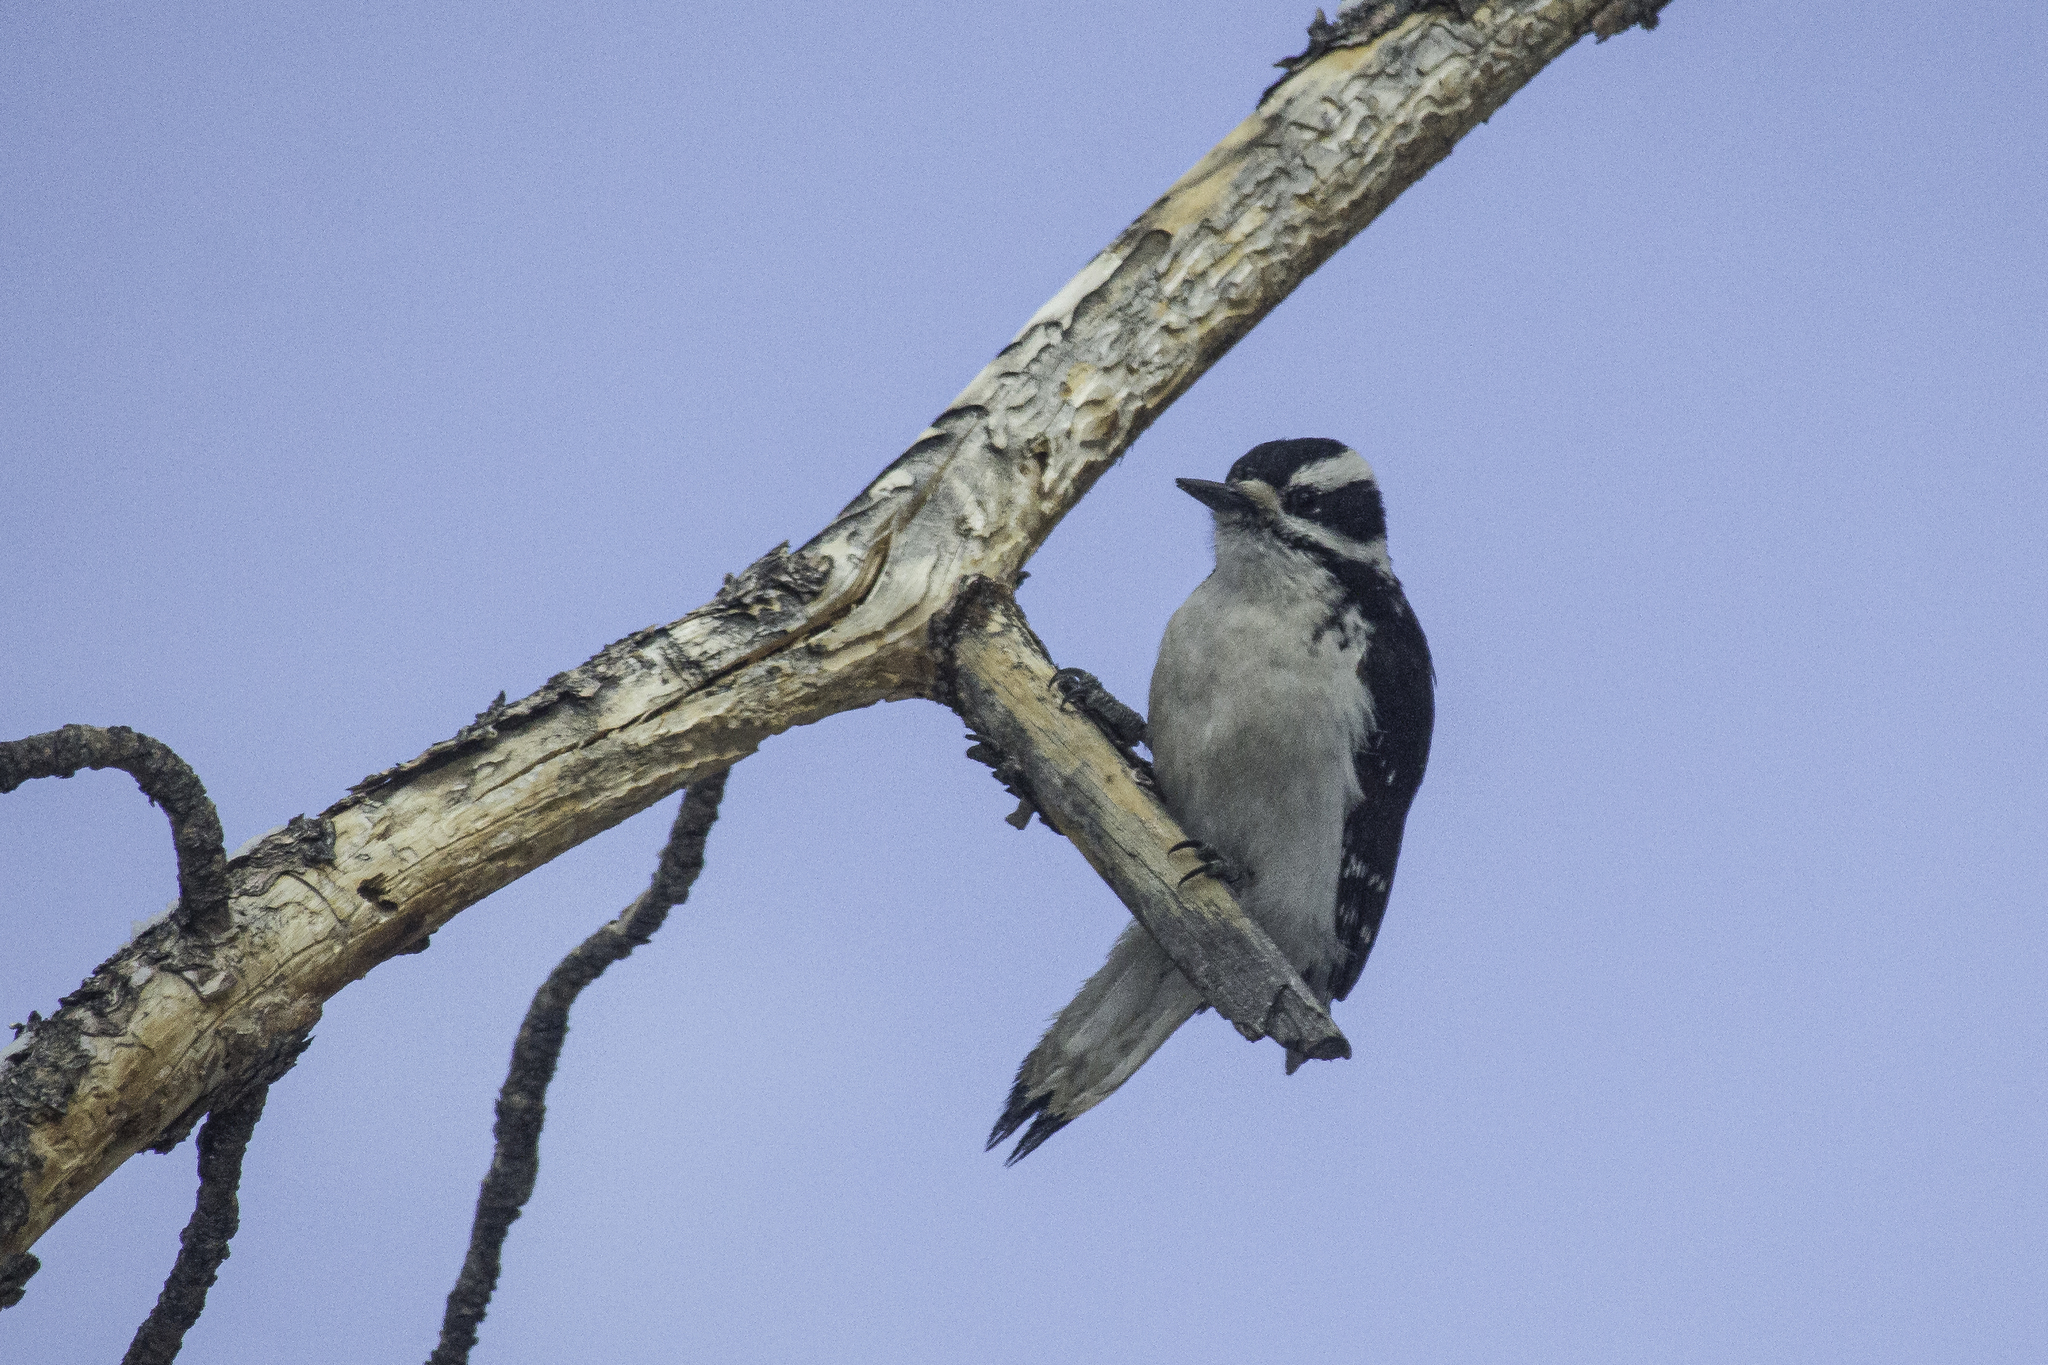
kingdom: Animalia
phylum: Chordata
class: Aves
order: Piciformes
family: Picidae
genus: Leuconotopicus
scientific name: Leuconotopicus villosus
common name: Hairy woodpecker
